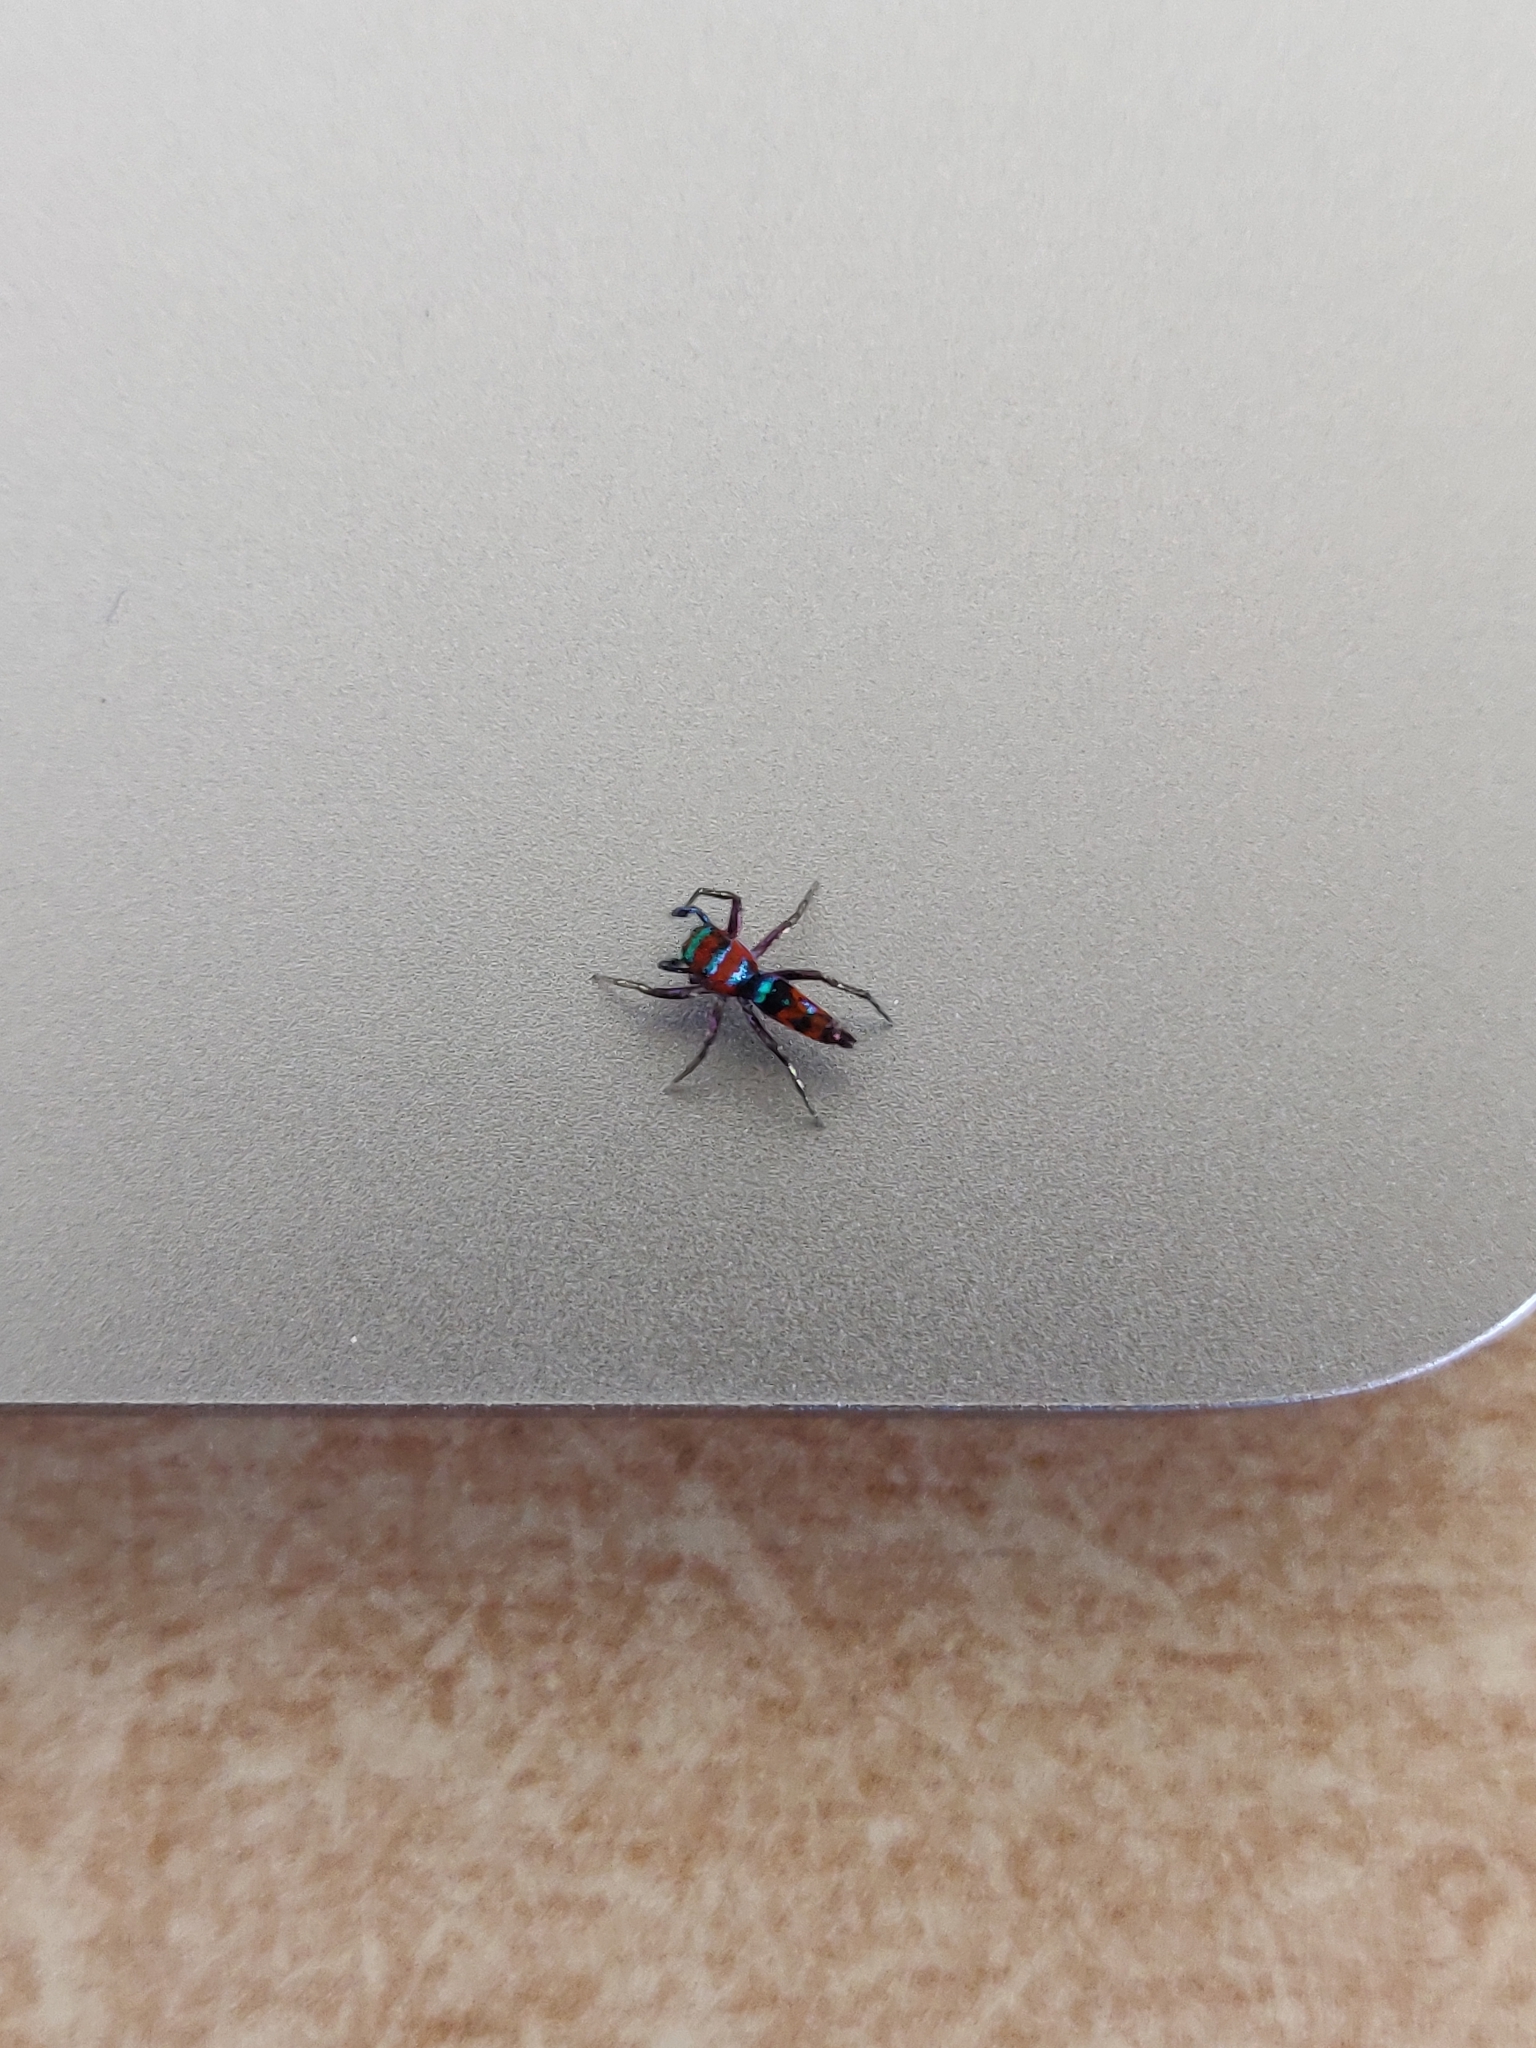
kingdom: Animalia
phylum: Arthropoda
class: Arachnida
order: Araneae
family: Salticidae
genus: Chrysilla
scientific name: Chrysilla volupe
